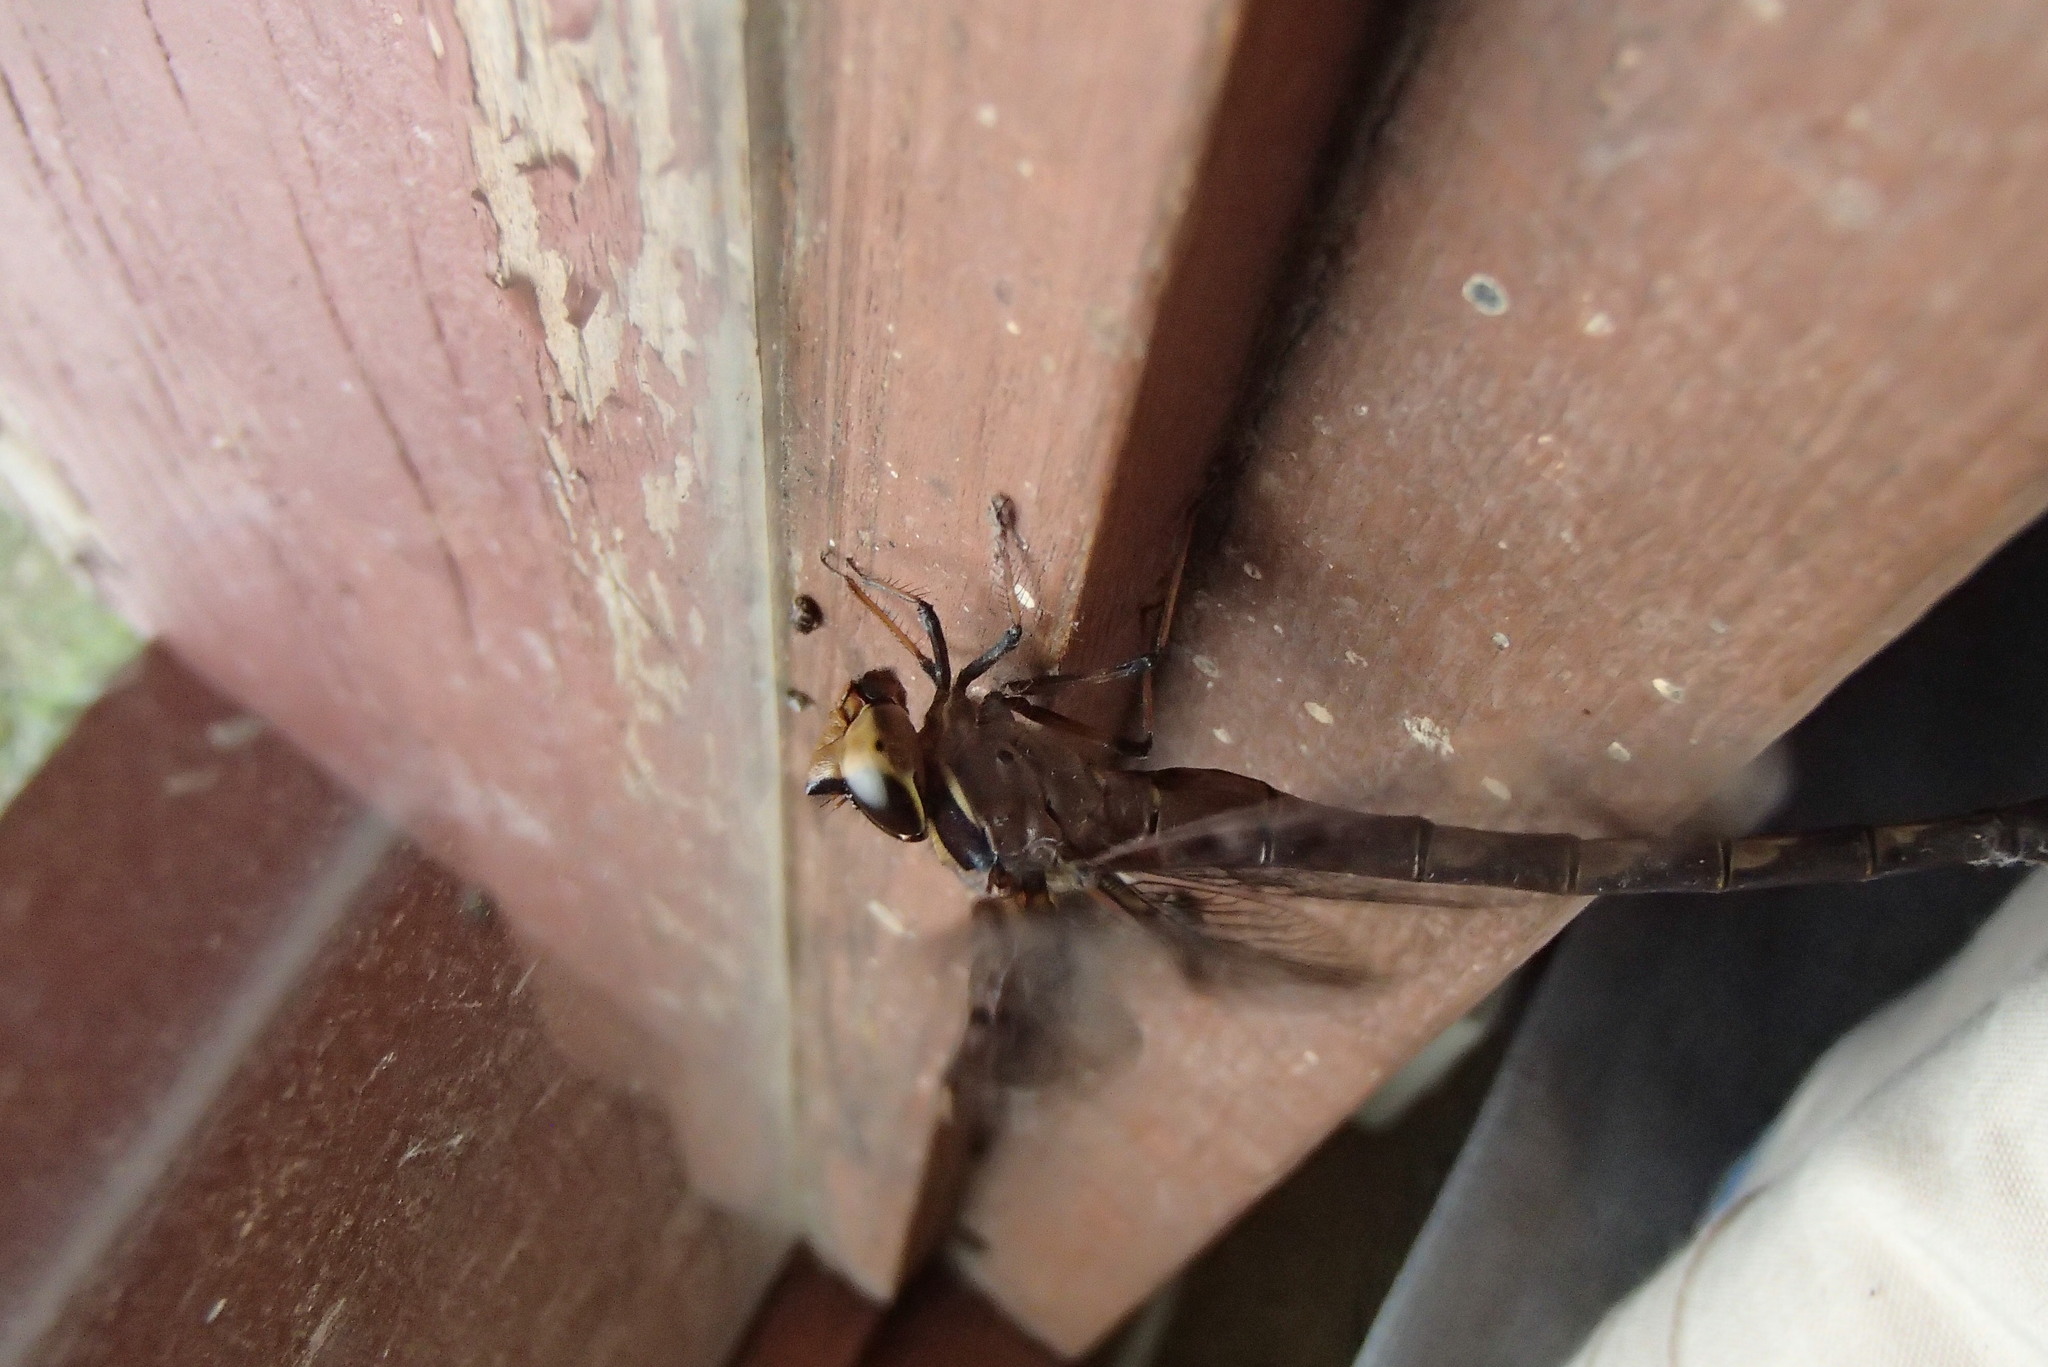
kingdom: Animalia
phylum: Arthropoda
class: Insecta
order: Odonata
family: Aeshnidae
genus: Telephlebia
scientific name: Telephlebia godeffroyi
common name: Eastern evening darner
